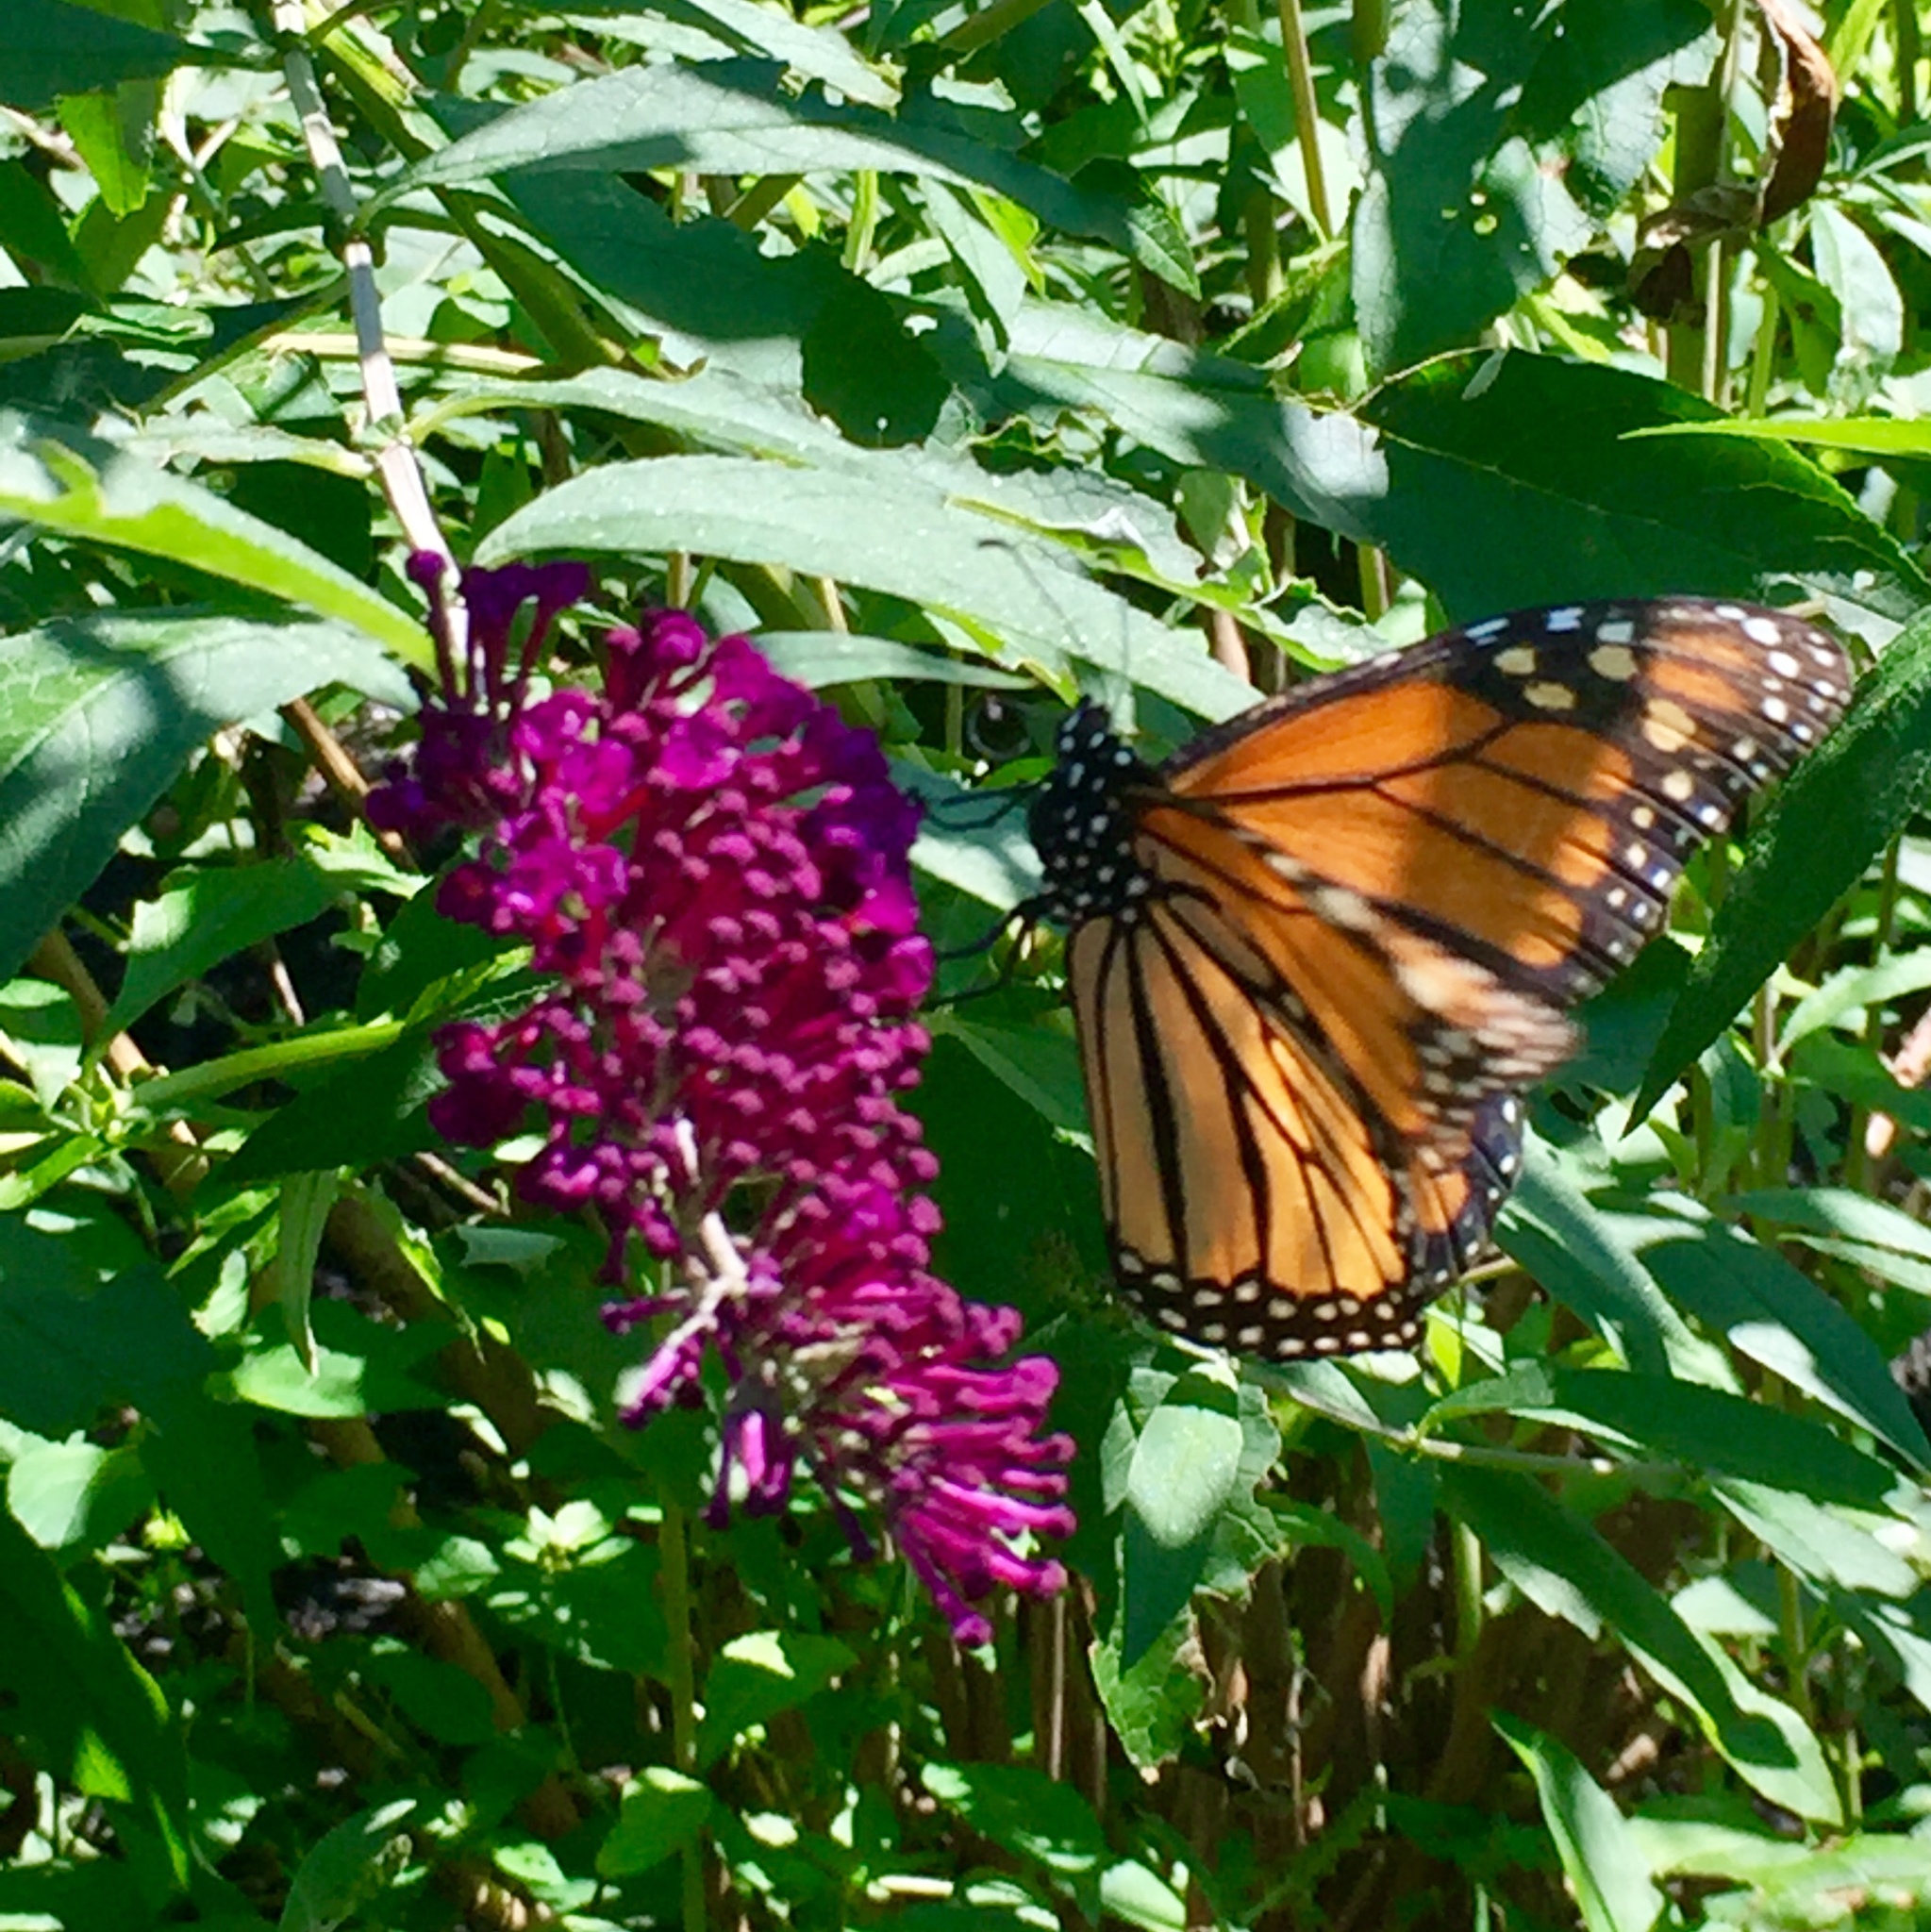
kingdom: Animalia
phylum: Arthropoda
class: Insecta
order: Lepidoptera
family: Nymphalidae
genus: Danaus
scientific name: Danaus plexippus
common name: Monarch
